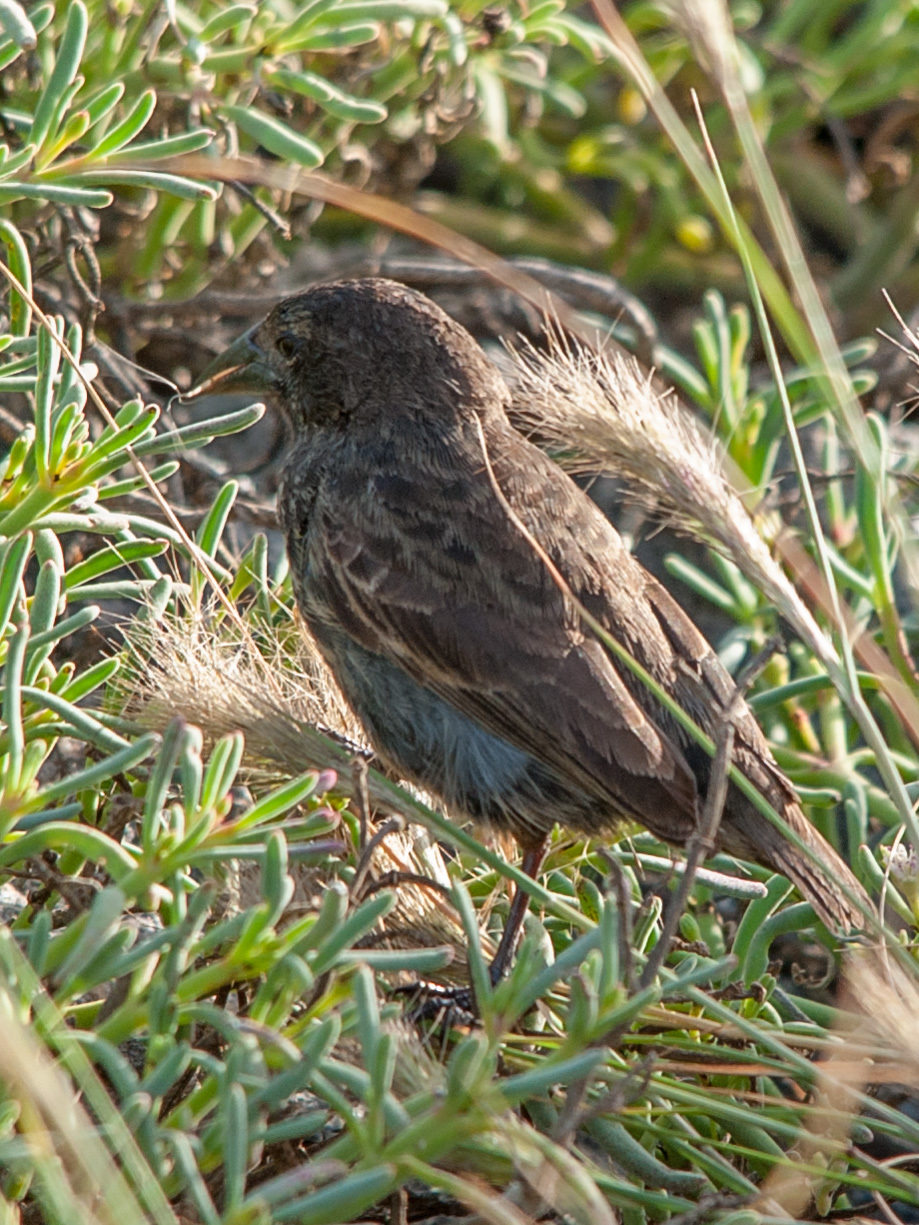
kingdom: Animalia
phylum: Chordata
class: Aves
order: Passeriformes
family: Thraupidae
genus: Geospiza
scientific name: Geospiza scandens
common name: Common cactus-finch
